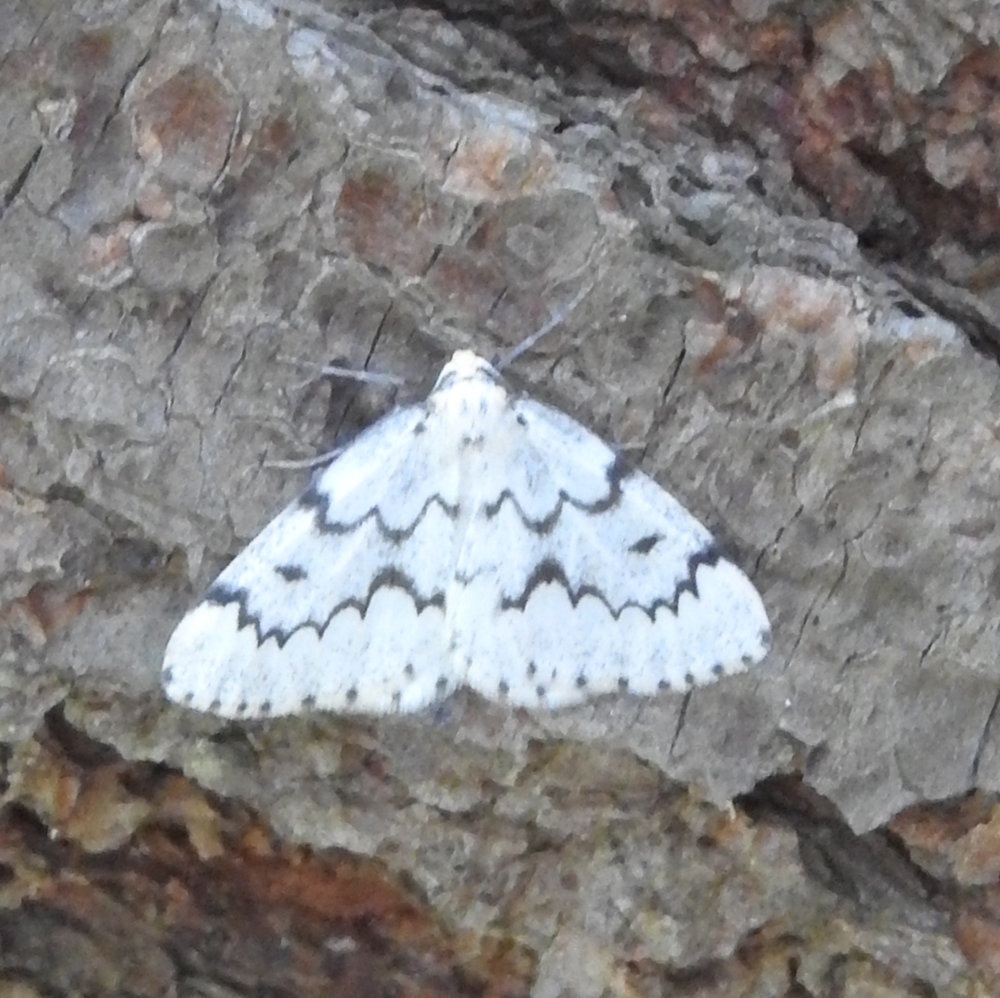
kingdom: Animalia
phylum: Arthropoda
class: Insecta
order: Lepidoptera
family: Geometridae
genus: Nepytia
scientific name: Nepytia canosaria
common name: False hemlock looper
